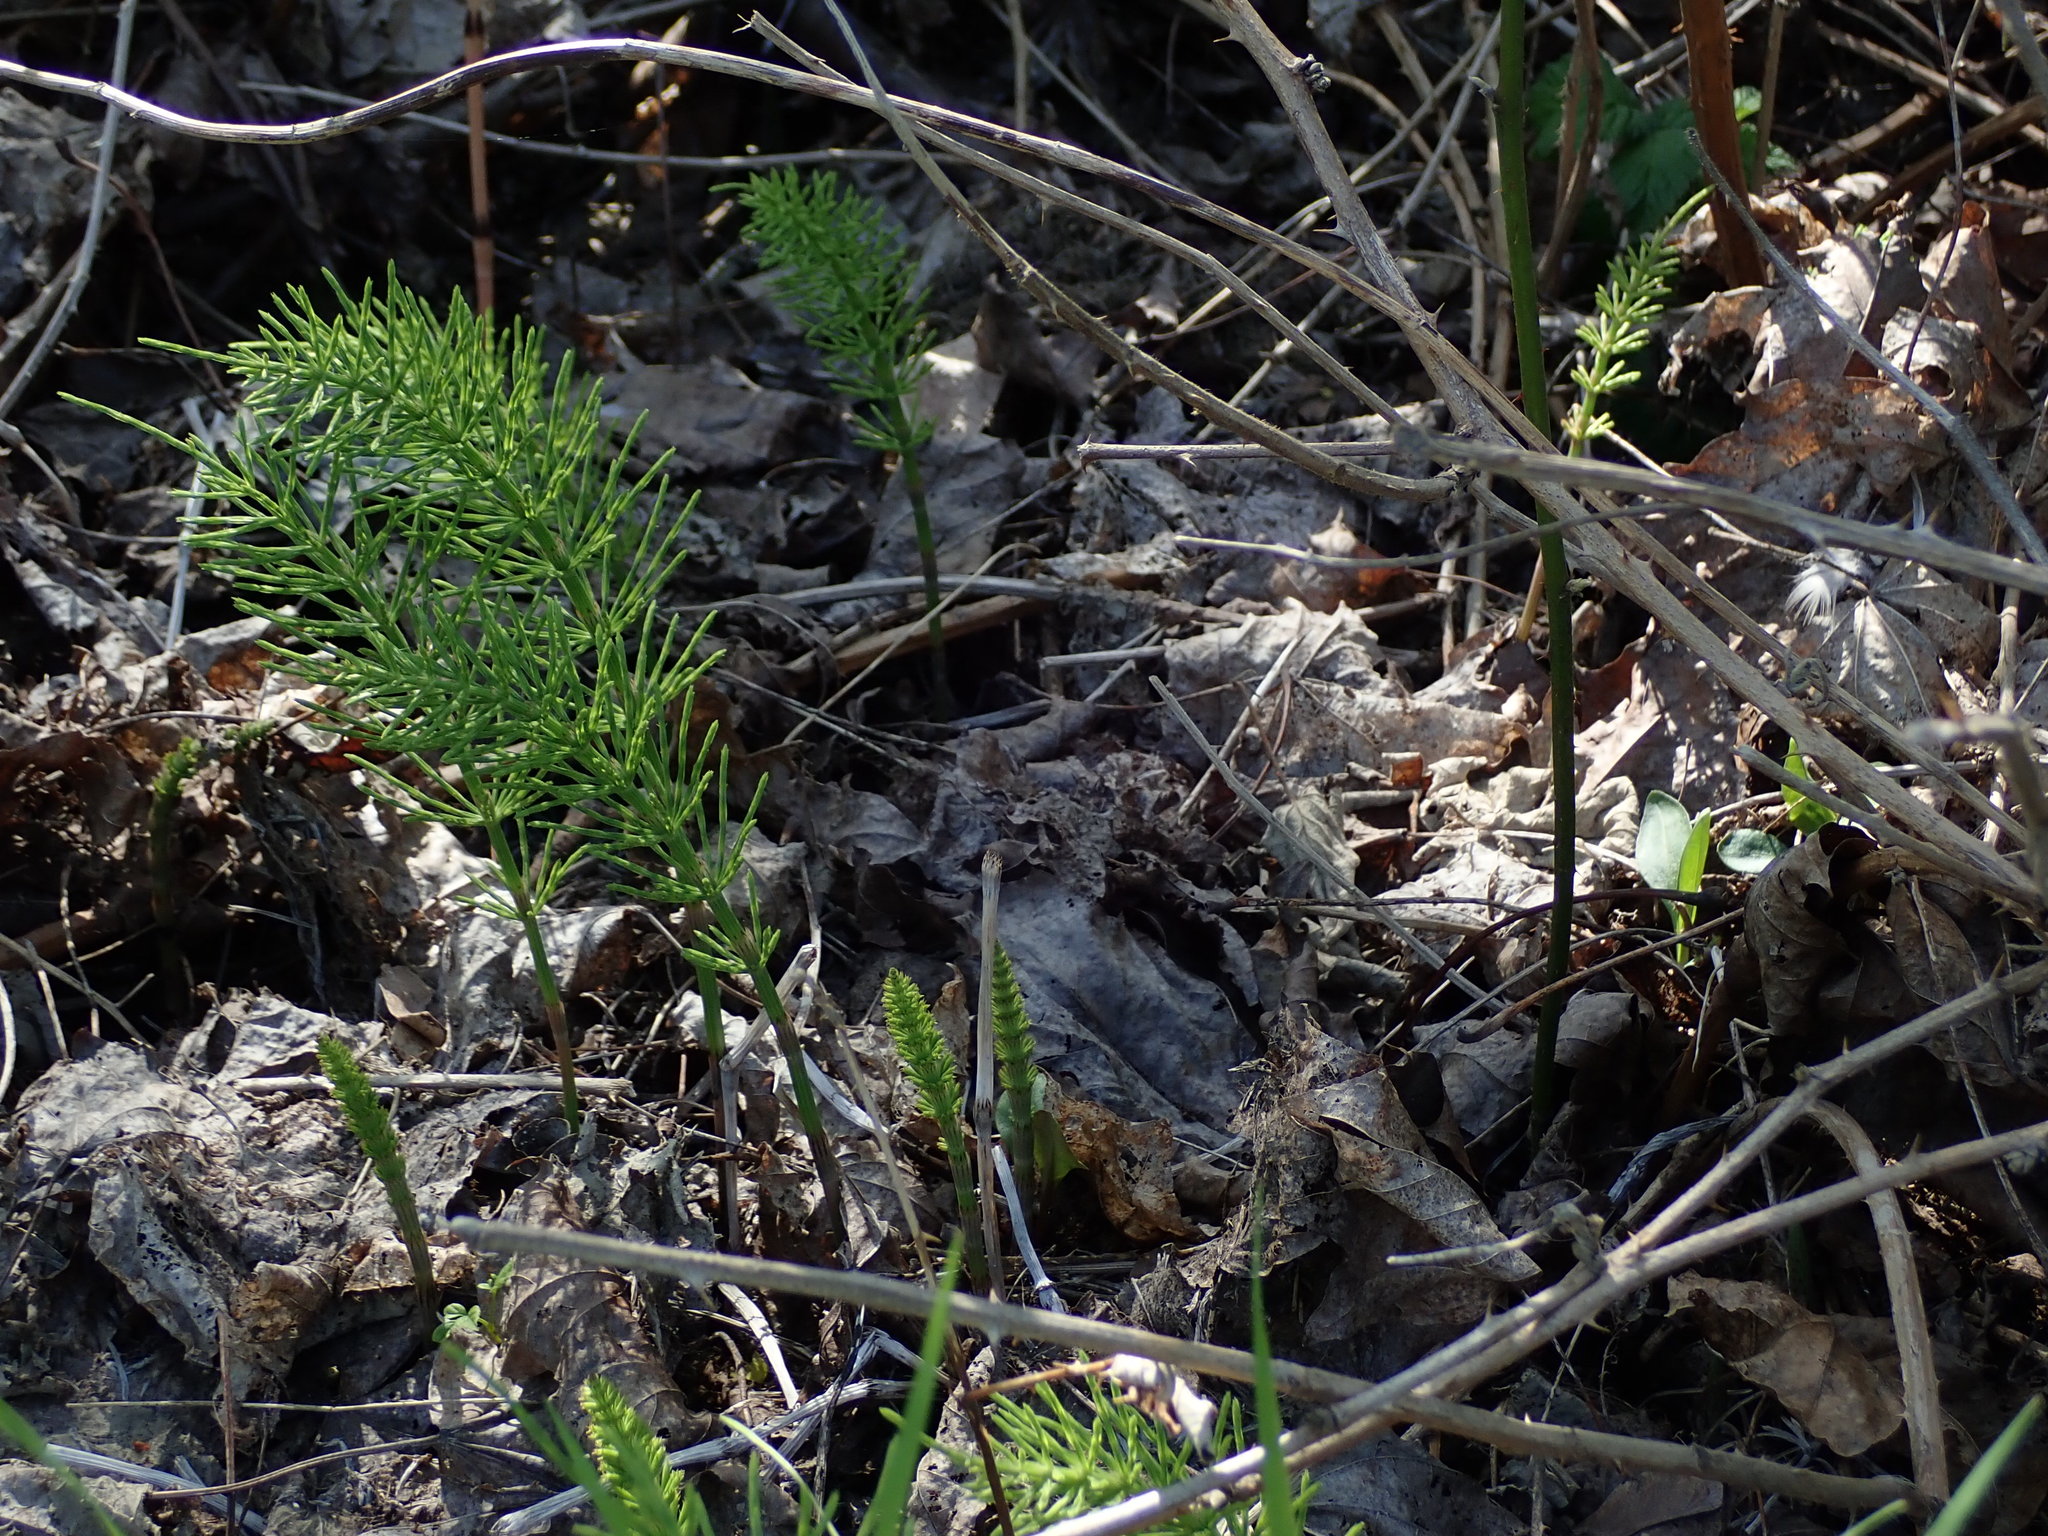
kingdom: Plantae
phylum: Tracheophyta
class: Polypodiopsida
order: Equisetales
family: Equisetaceae
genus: Equisetum
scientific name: Equisetum arvense
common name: Field horsetail
